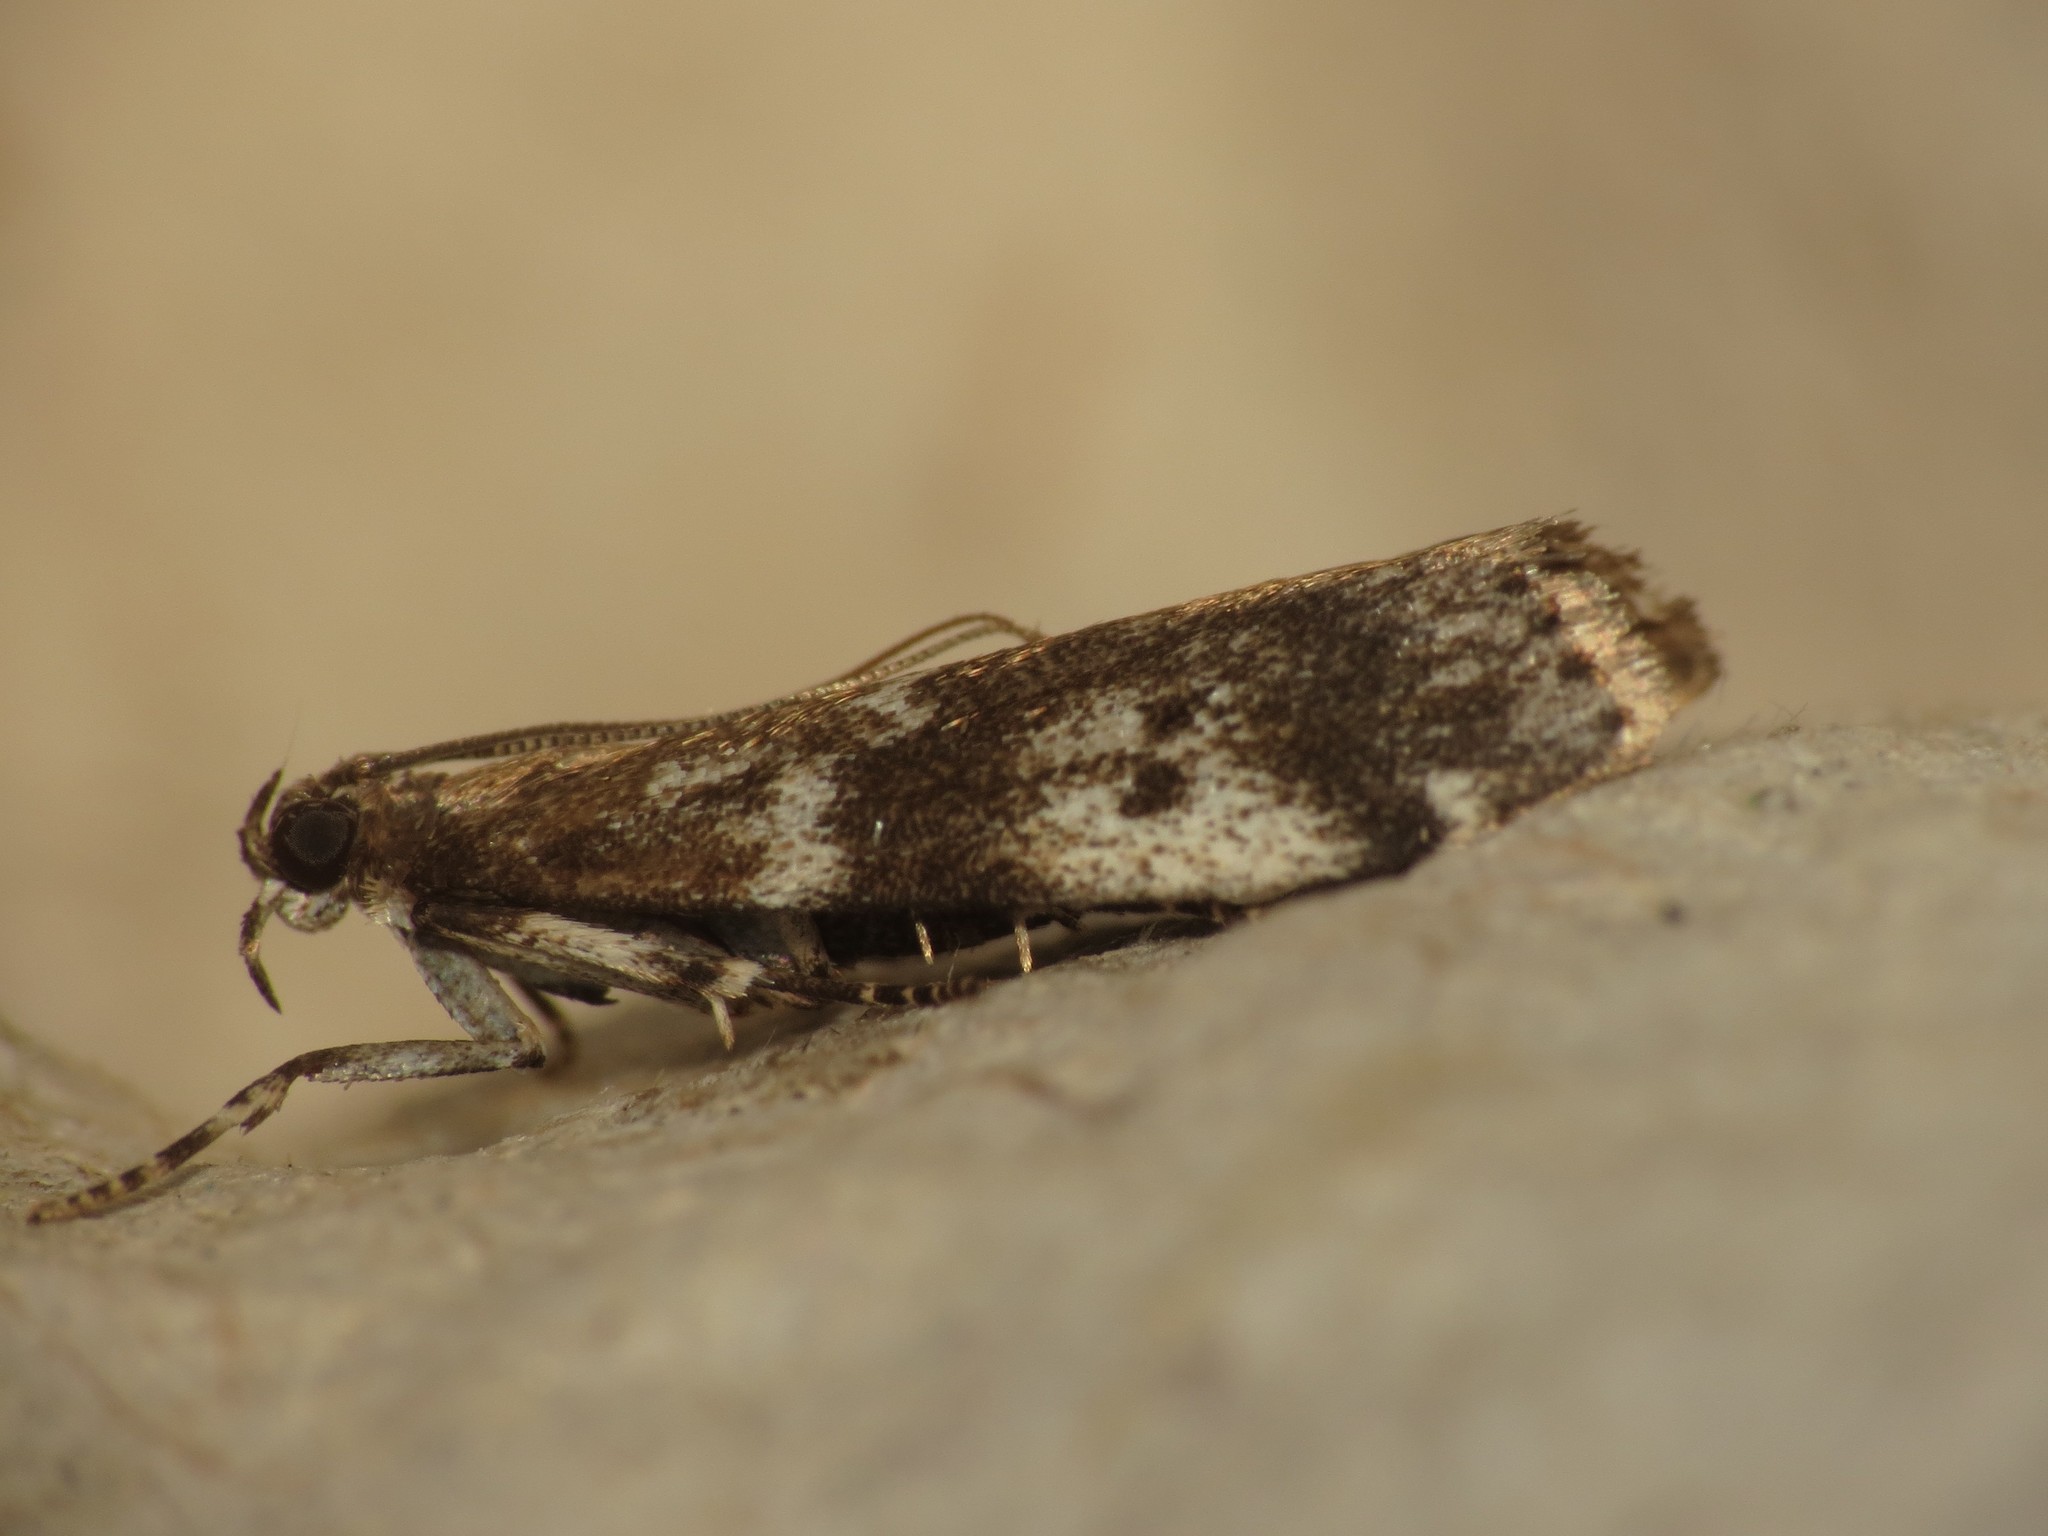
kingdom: Animalia
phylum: Arthropoda
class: Insecta
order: Lepidoptera
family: Pyralidae
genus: Assara
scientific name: Assara terebrella
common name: Dark spruce knot-horn
